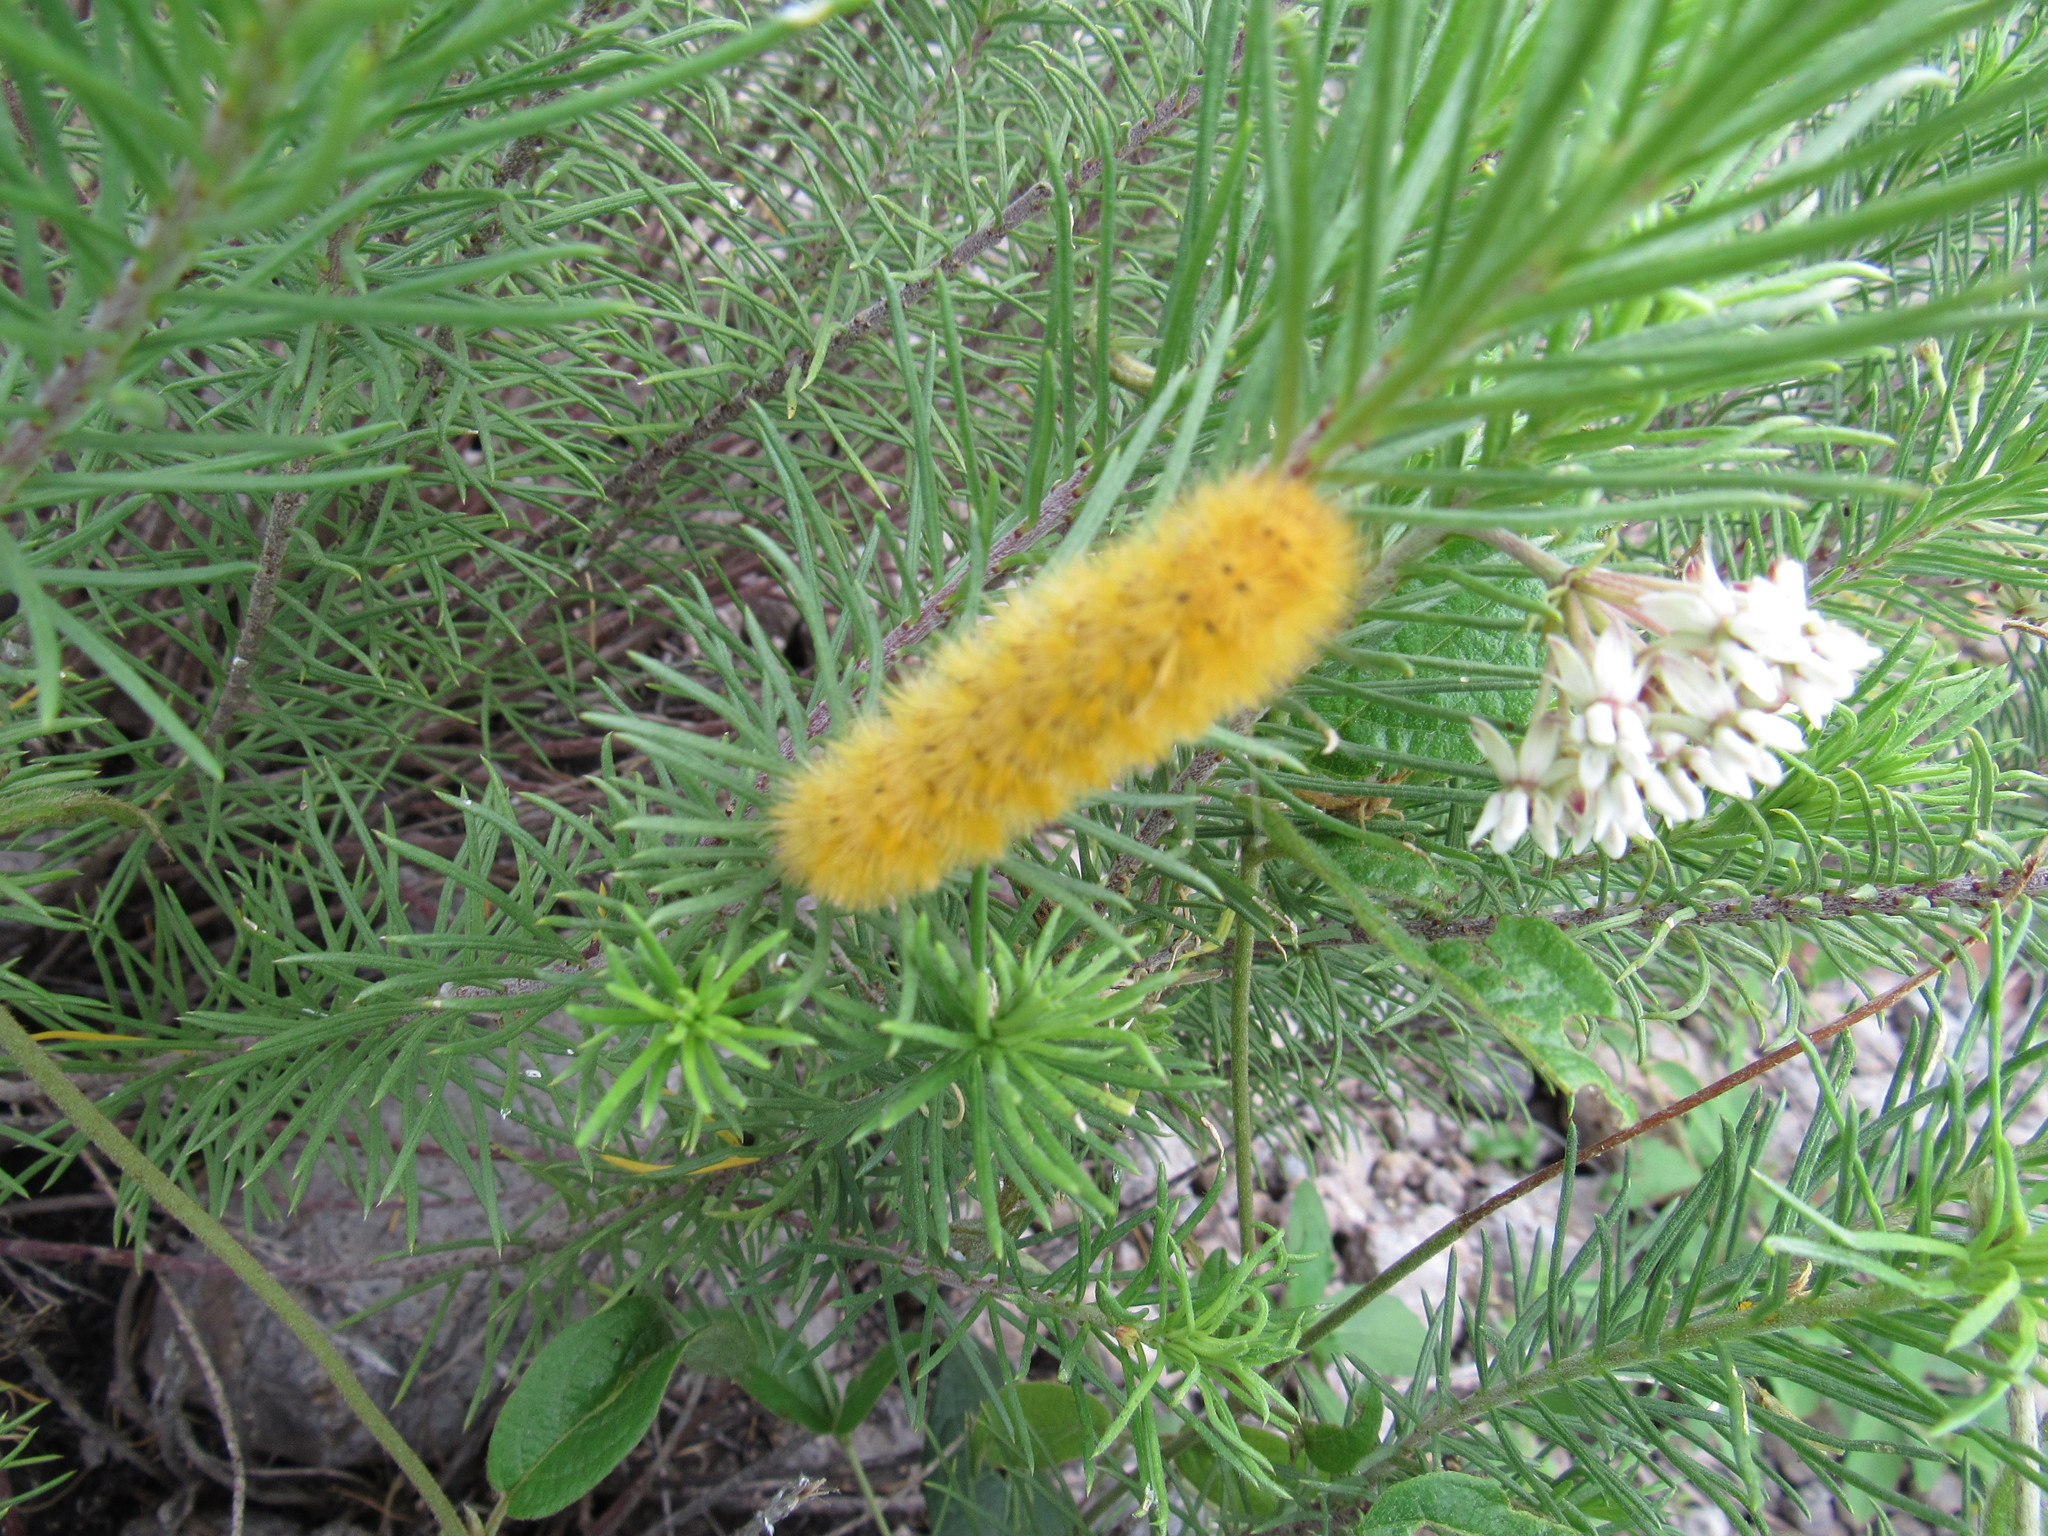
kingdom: Animalia
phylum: Arthropoda
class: Insecta
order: Lepidoptera
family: Erebidae
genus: Lerina
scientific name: Lerina incarnata
